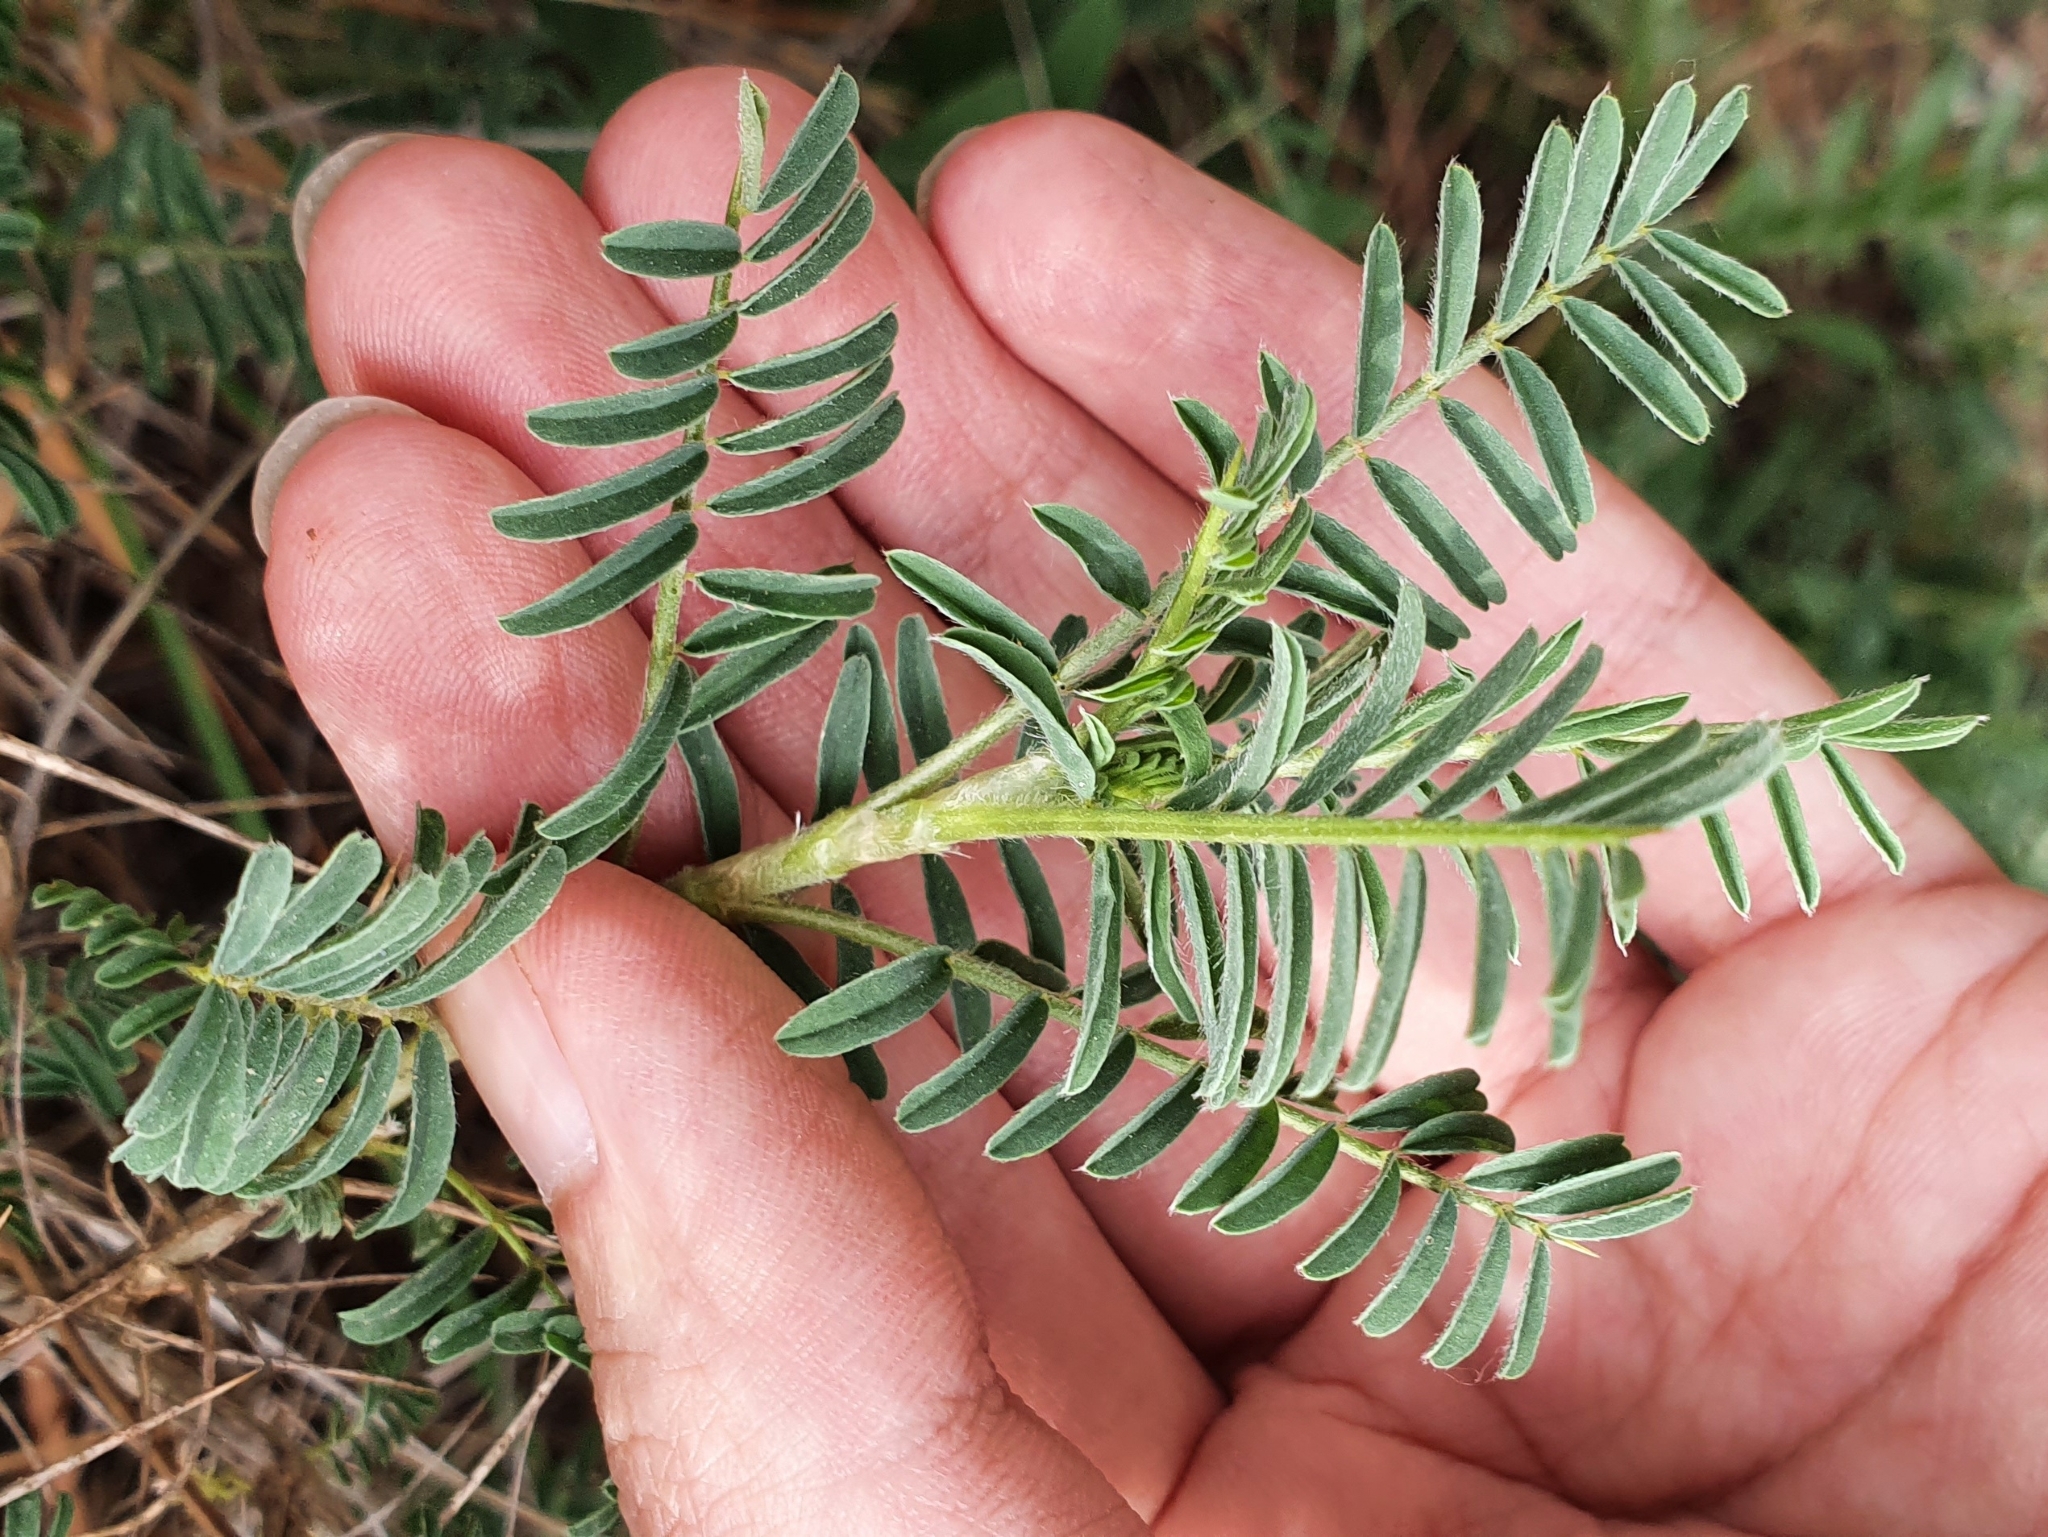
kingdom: Plantae
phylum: Tracheophyta
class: Magnoliopsida
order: Fabales
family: Fabaceae
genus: Astragalus
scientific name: Astragalus armatus
